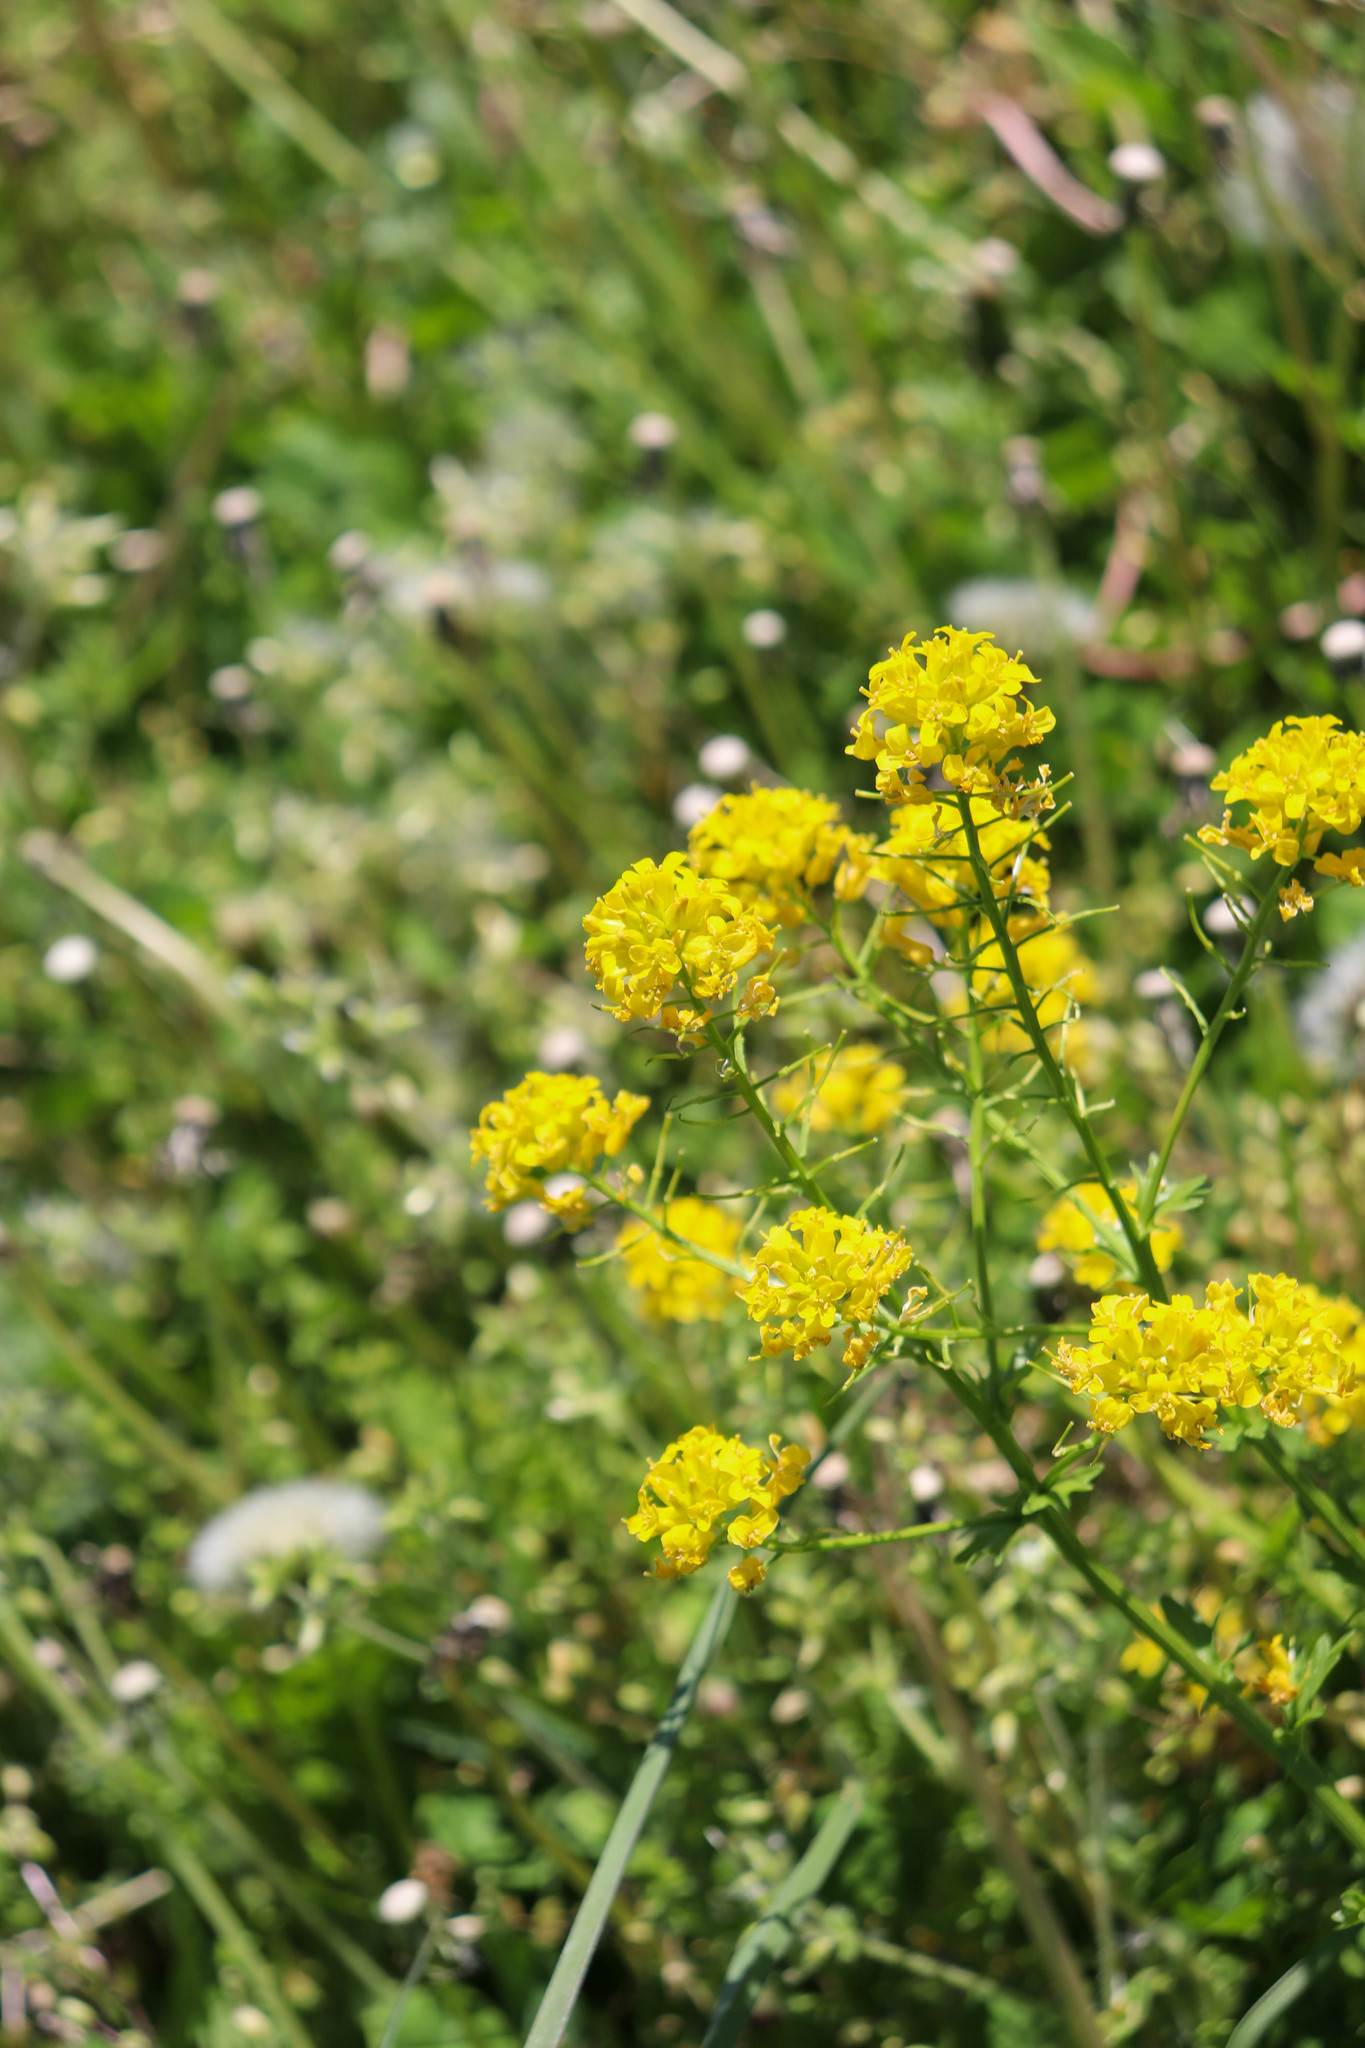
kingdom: Plantae
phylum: Tracheophyta
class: Magnoliopsida
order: Brassicales
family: Brassicaceae
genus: Barbarea
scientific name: Barbarea vulgaris
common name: Cressy-greens
